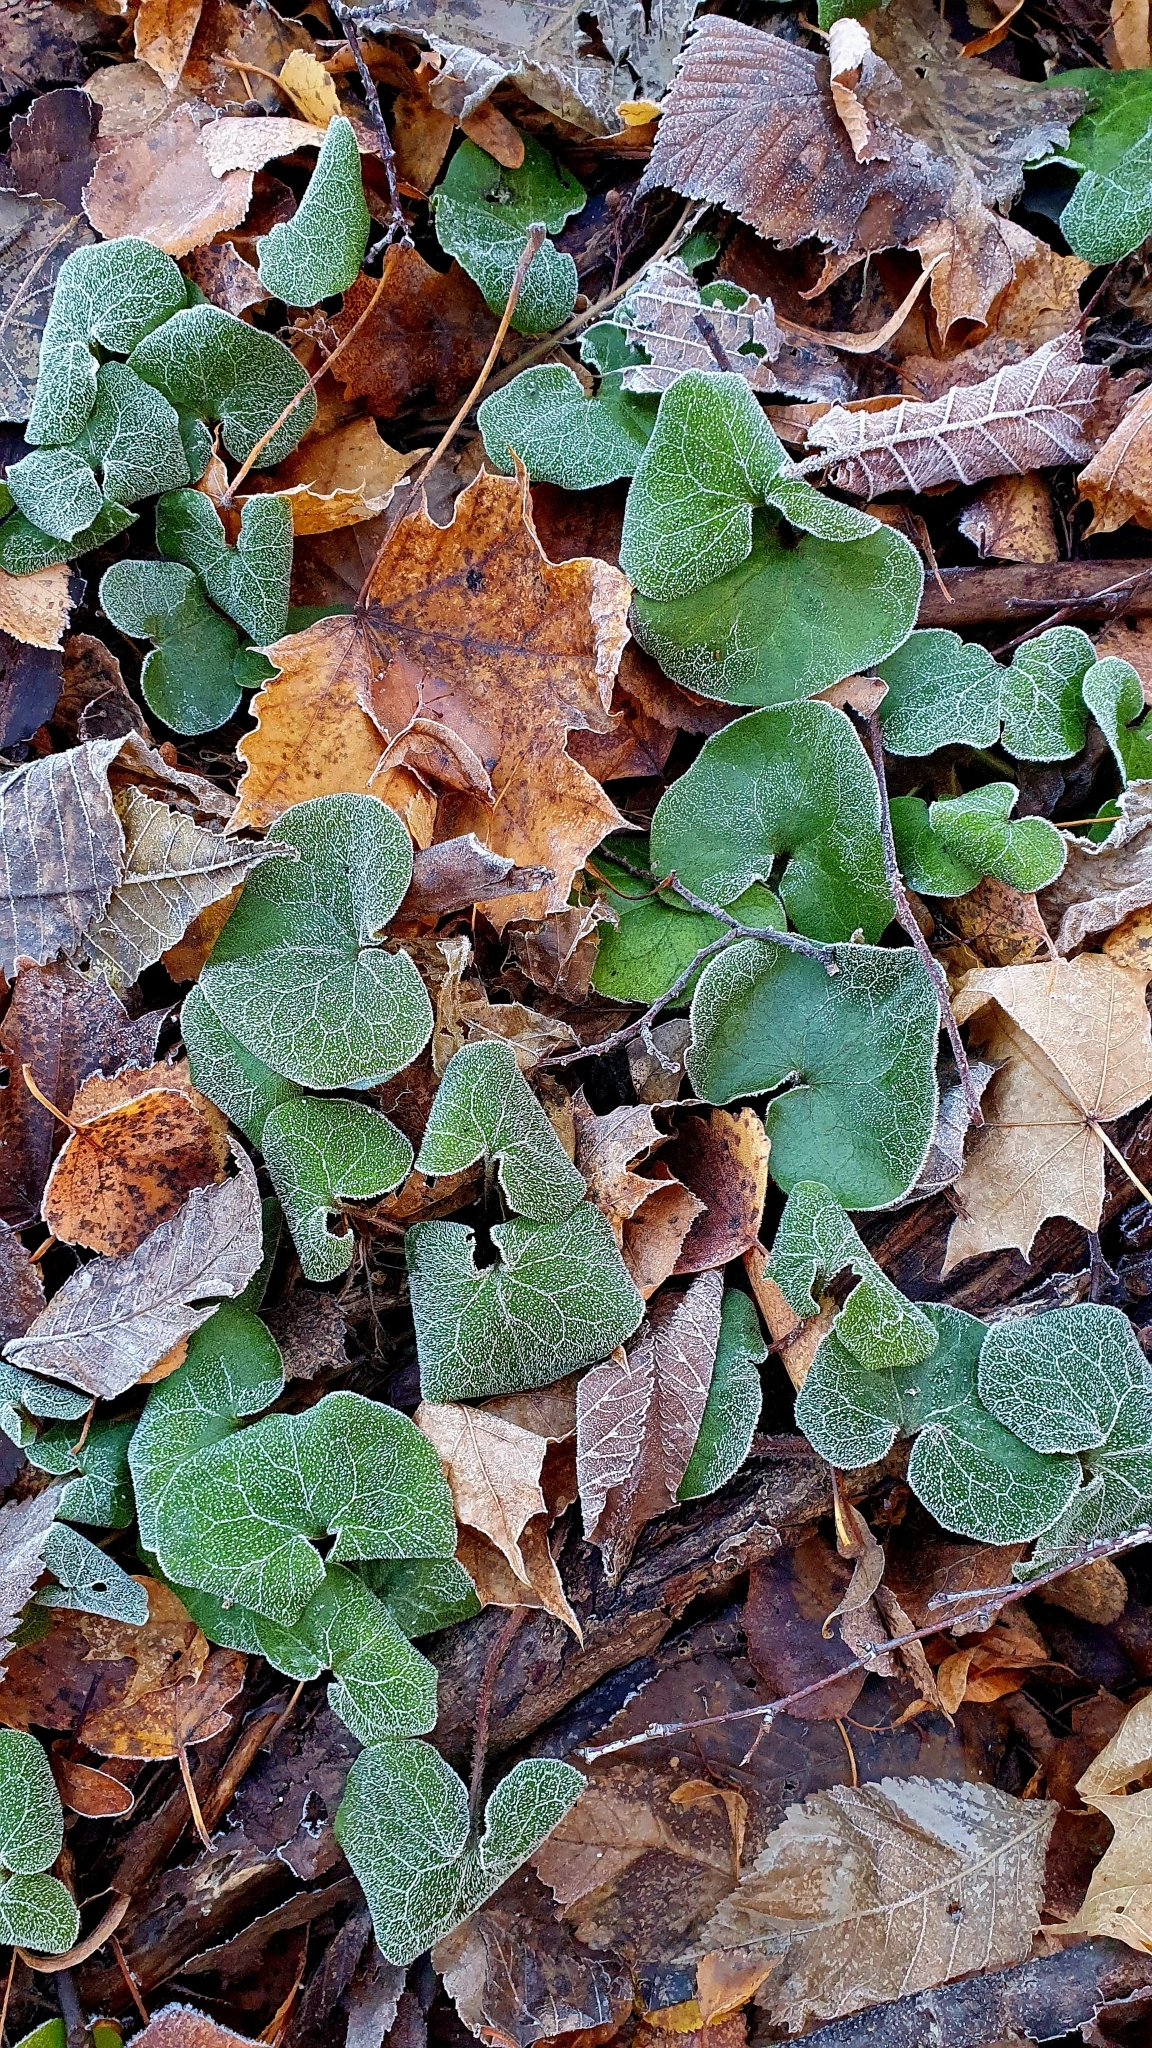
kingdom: Plantae
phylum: Tracheophyta
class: Magnoliopsida
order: Piperales
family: Aristolochiaceae
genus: Asarum
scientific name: Asarum europaeum
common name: Asarabacca
